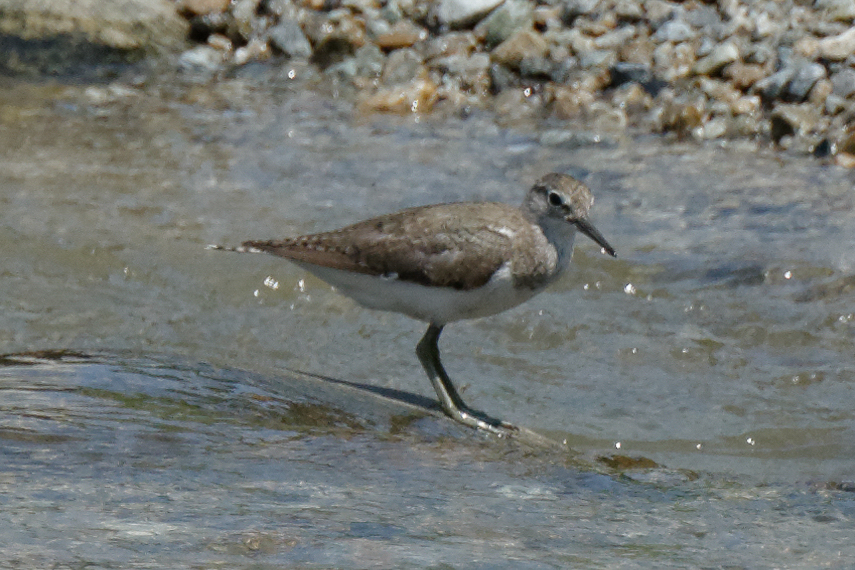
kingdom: Animalia
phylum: Chordata
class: Aves
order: Charadriiformes
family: Scolopacidae
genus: Actitis
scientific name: Actitis hypoleucos
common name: Common sandpiper
